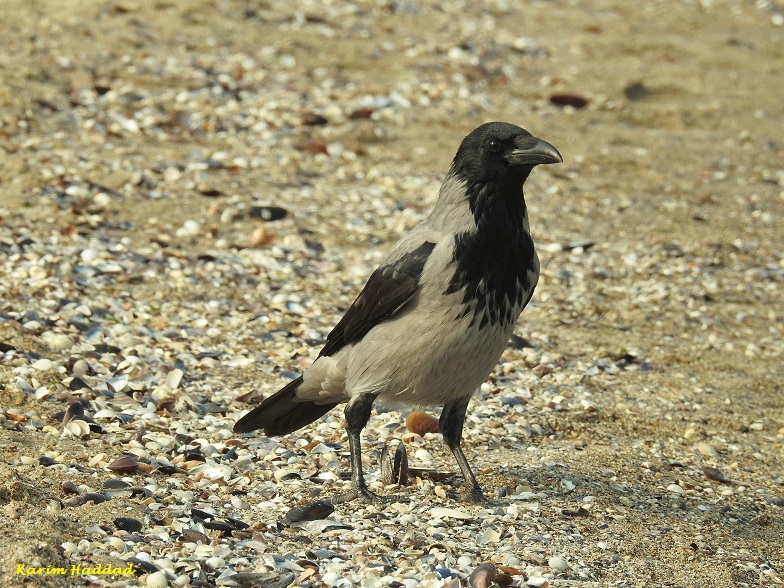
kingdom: Animalia
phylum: Chordata
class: Aves
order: Passeriformes
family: Corvidae
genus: Corvus
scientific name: Corvus cornix
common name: Hooded crow
